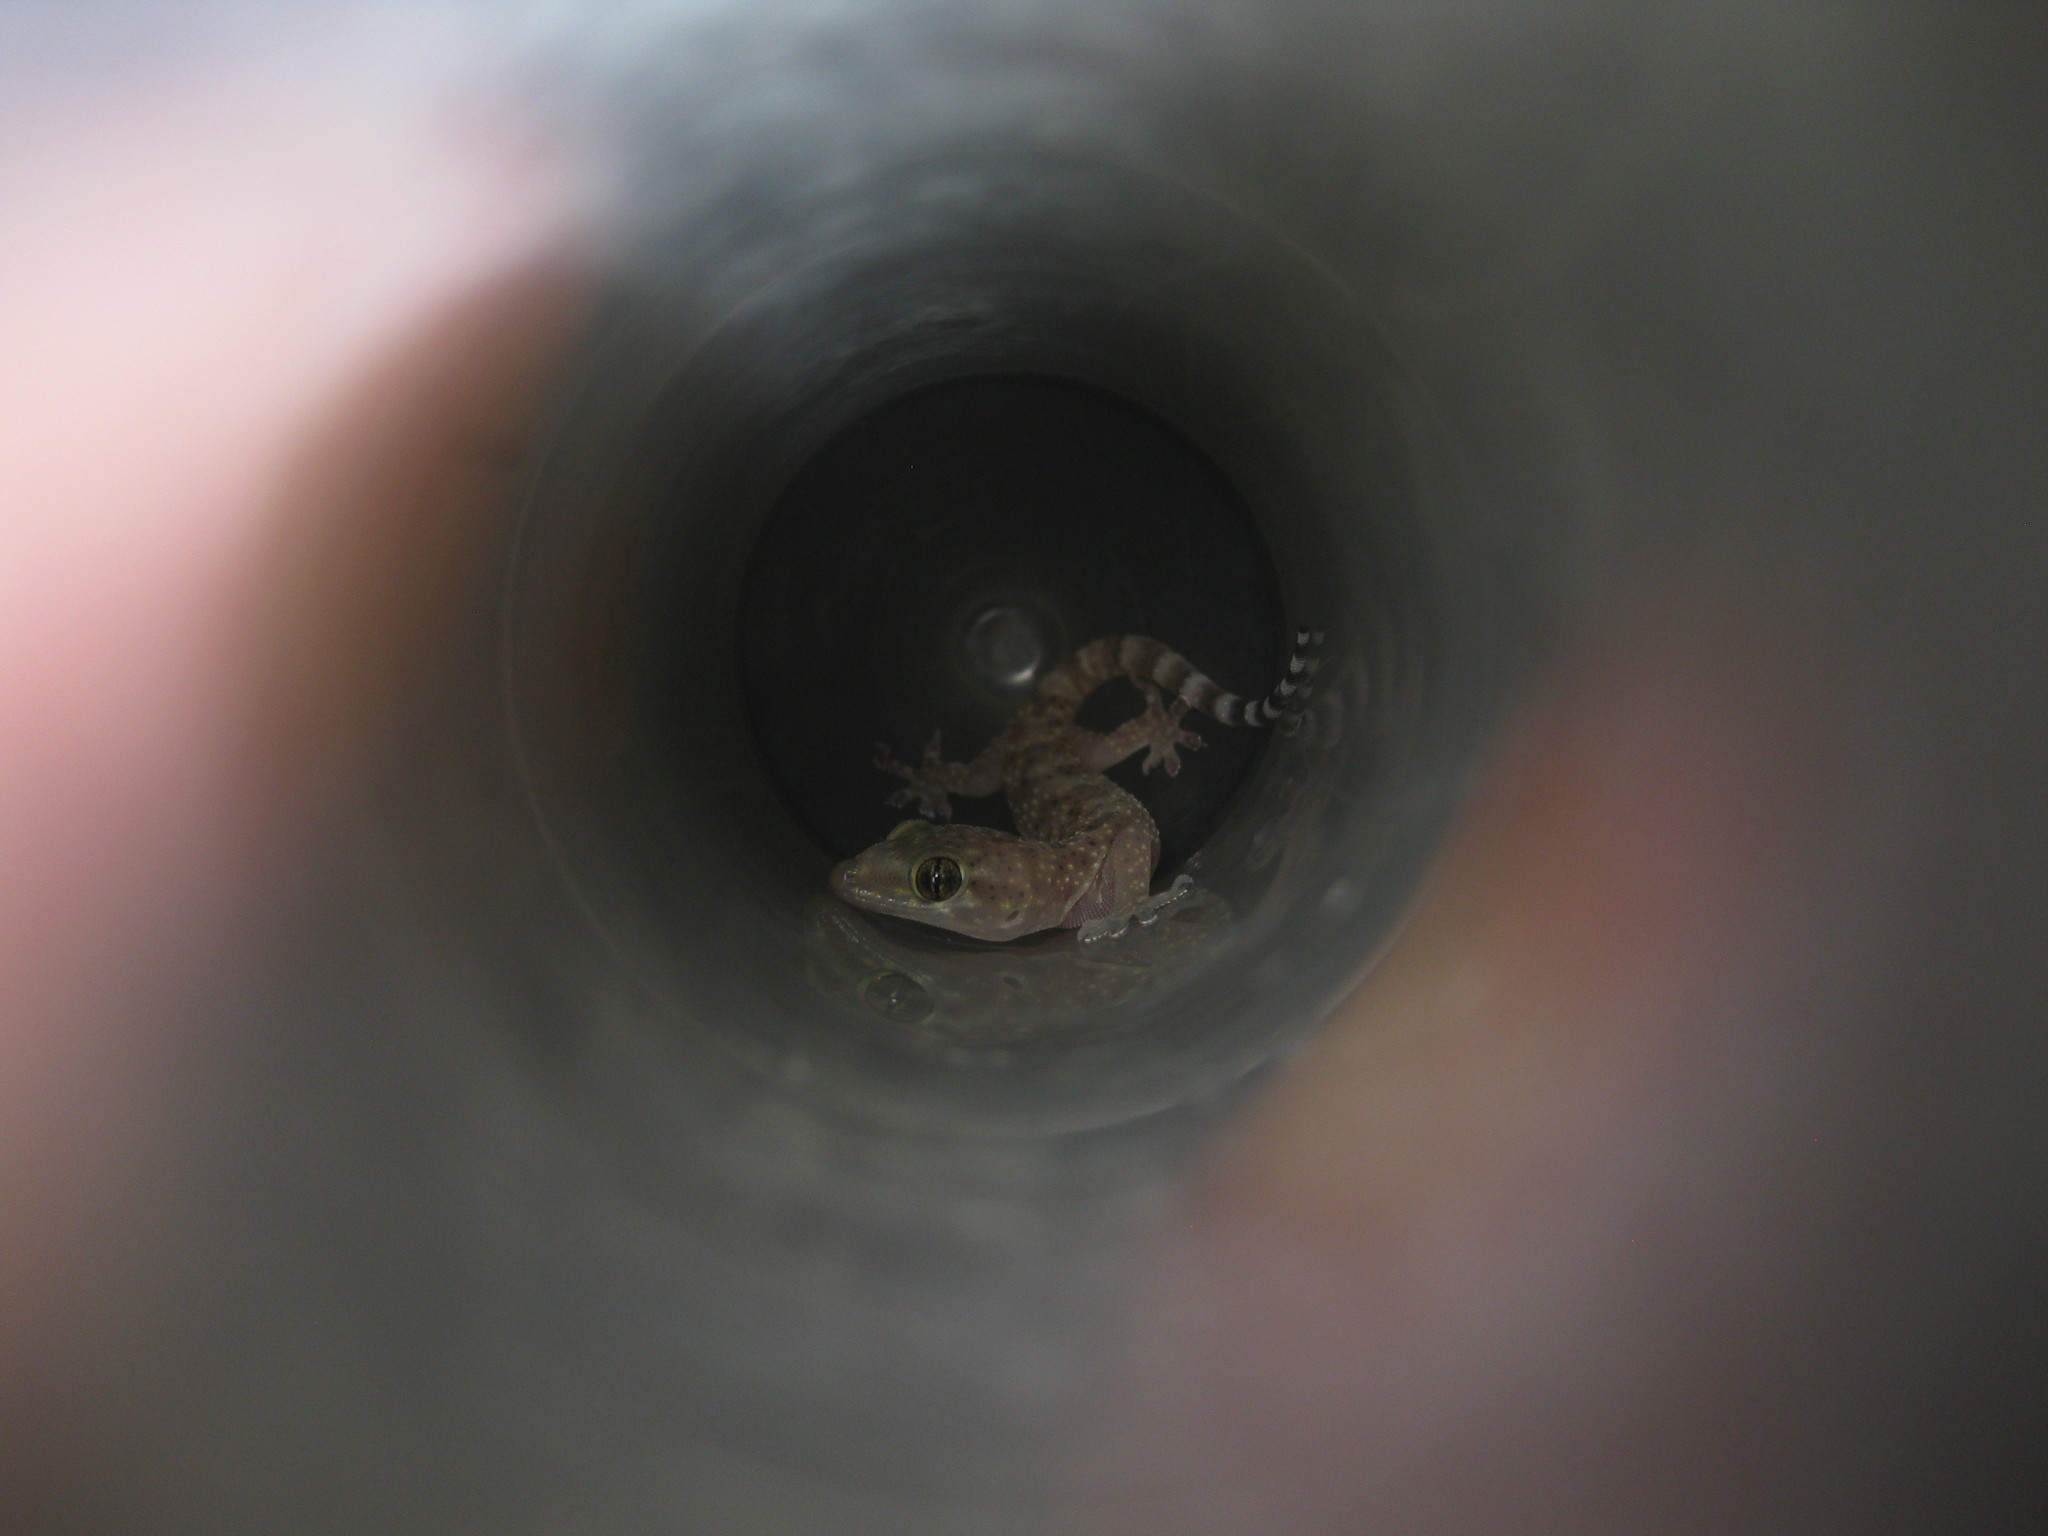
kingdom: Animalia
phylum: Chordata
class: Squamata
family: Gekkonidae
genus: Hemidactylus
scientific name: Hemidactylus turcicus
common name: Turkish gecko
